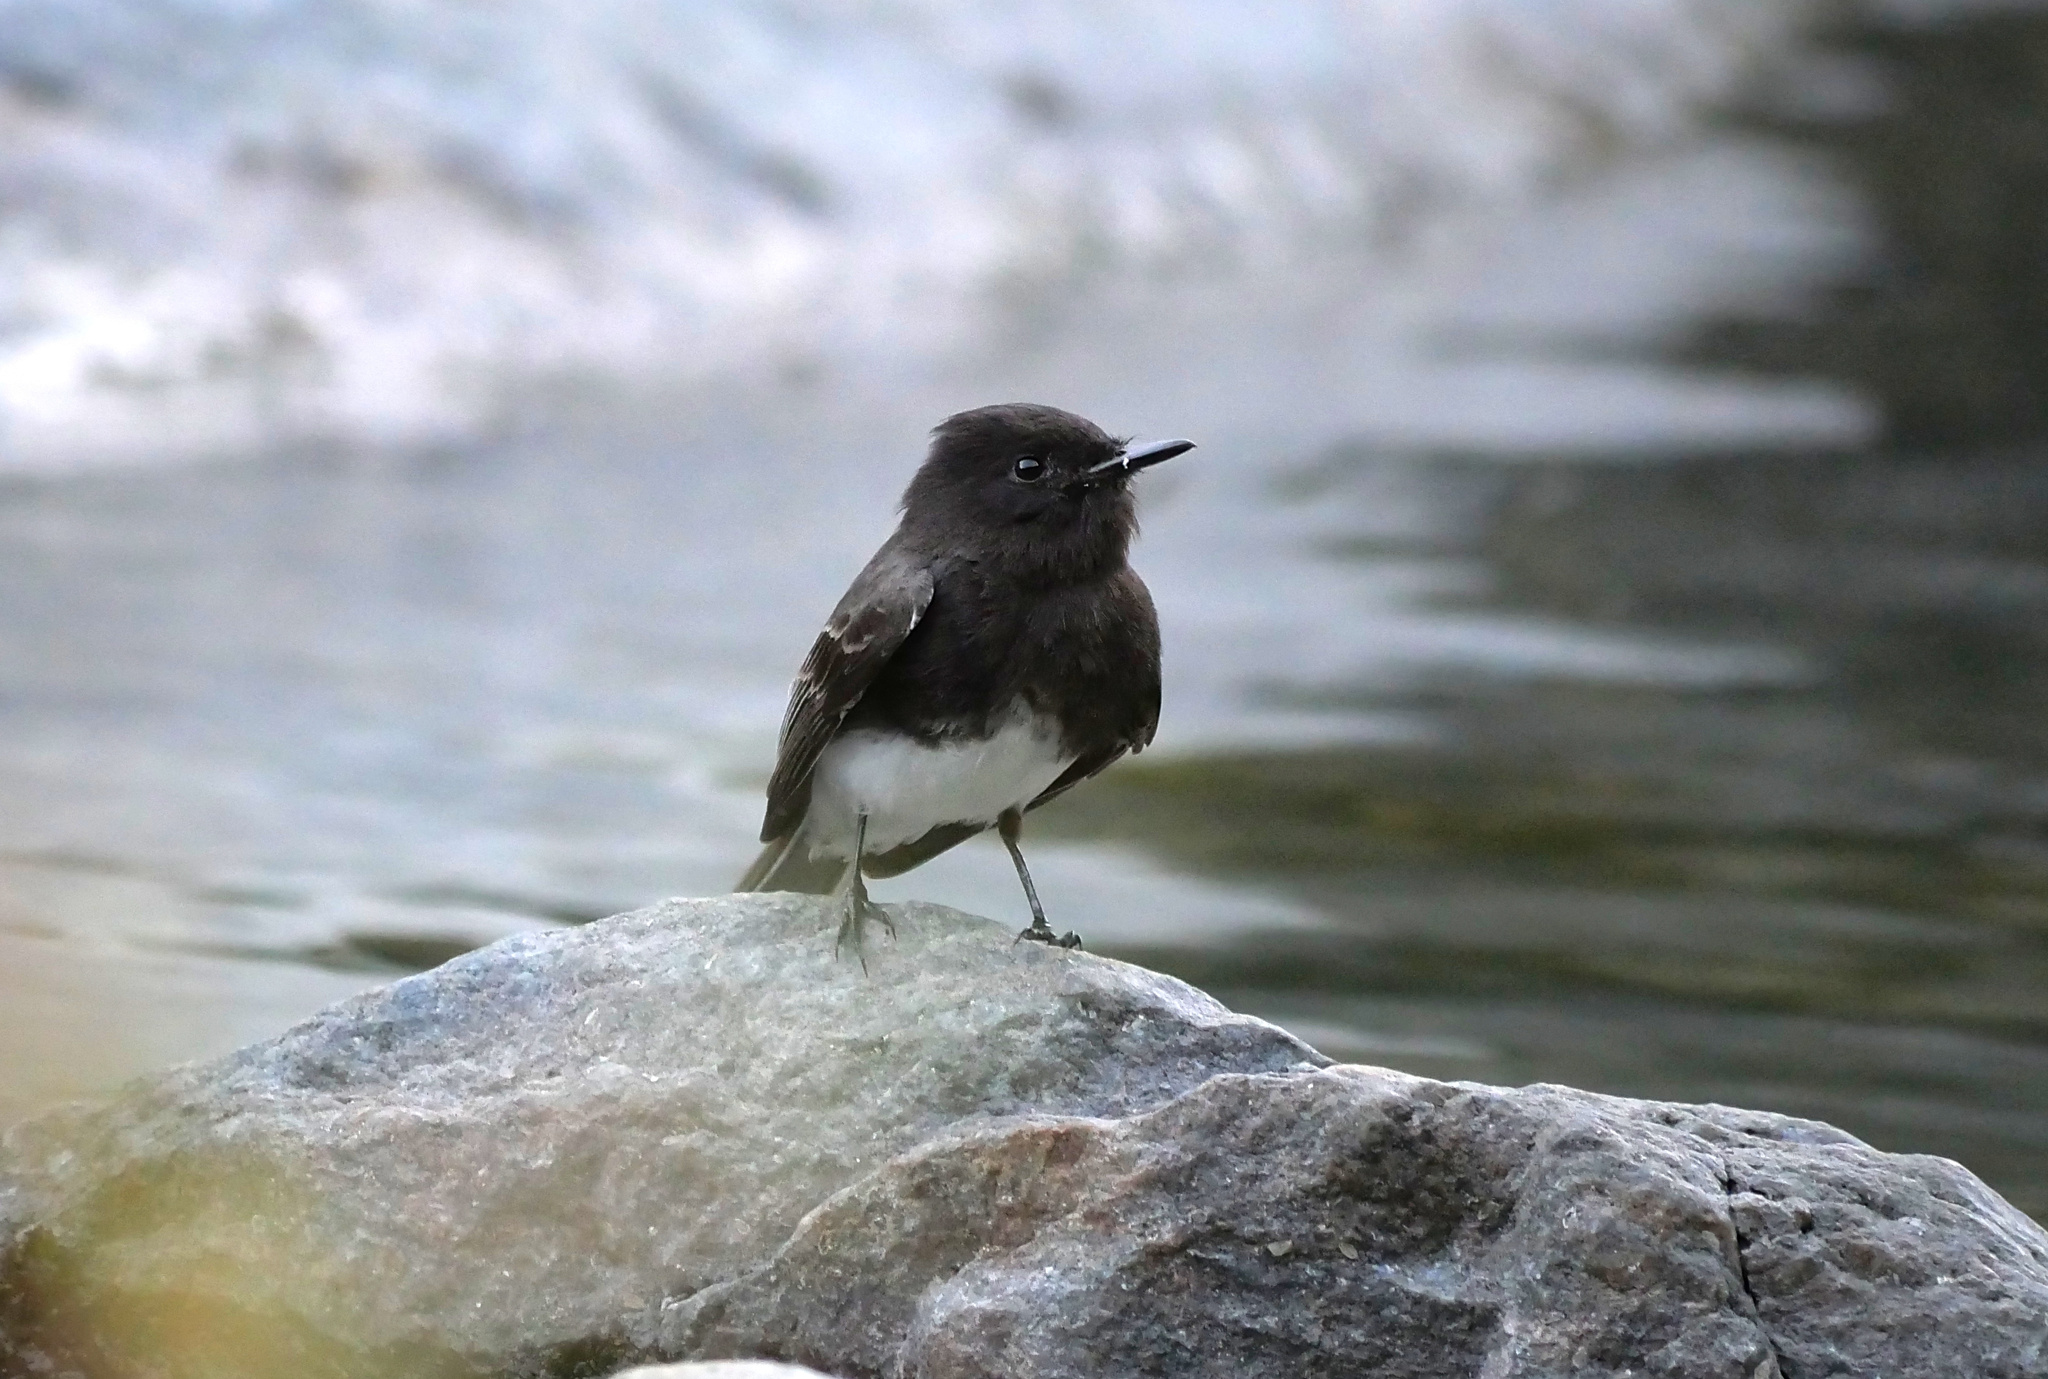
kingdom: Animalia
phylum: Chordata
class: Aves
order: Passeriformes
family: Tyrannidae
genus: Sayornis
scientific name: Sayornis nigricans
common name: Black phoebe
